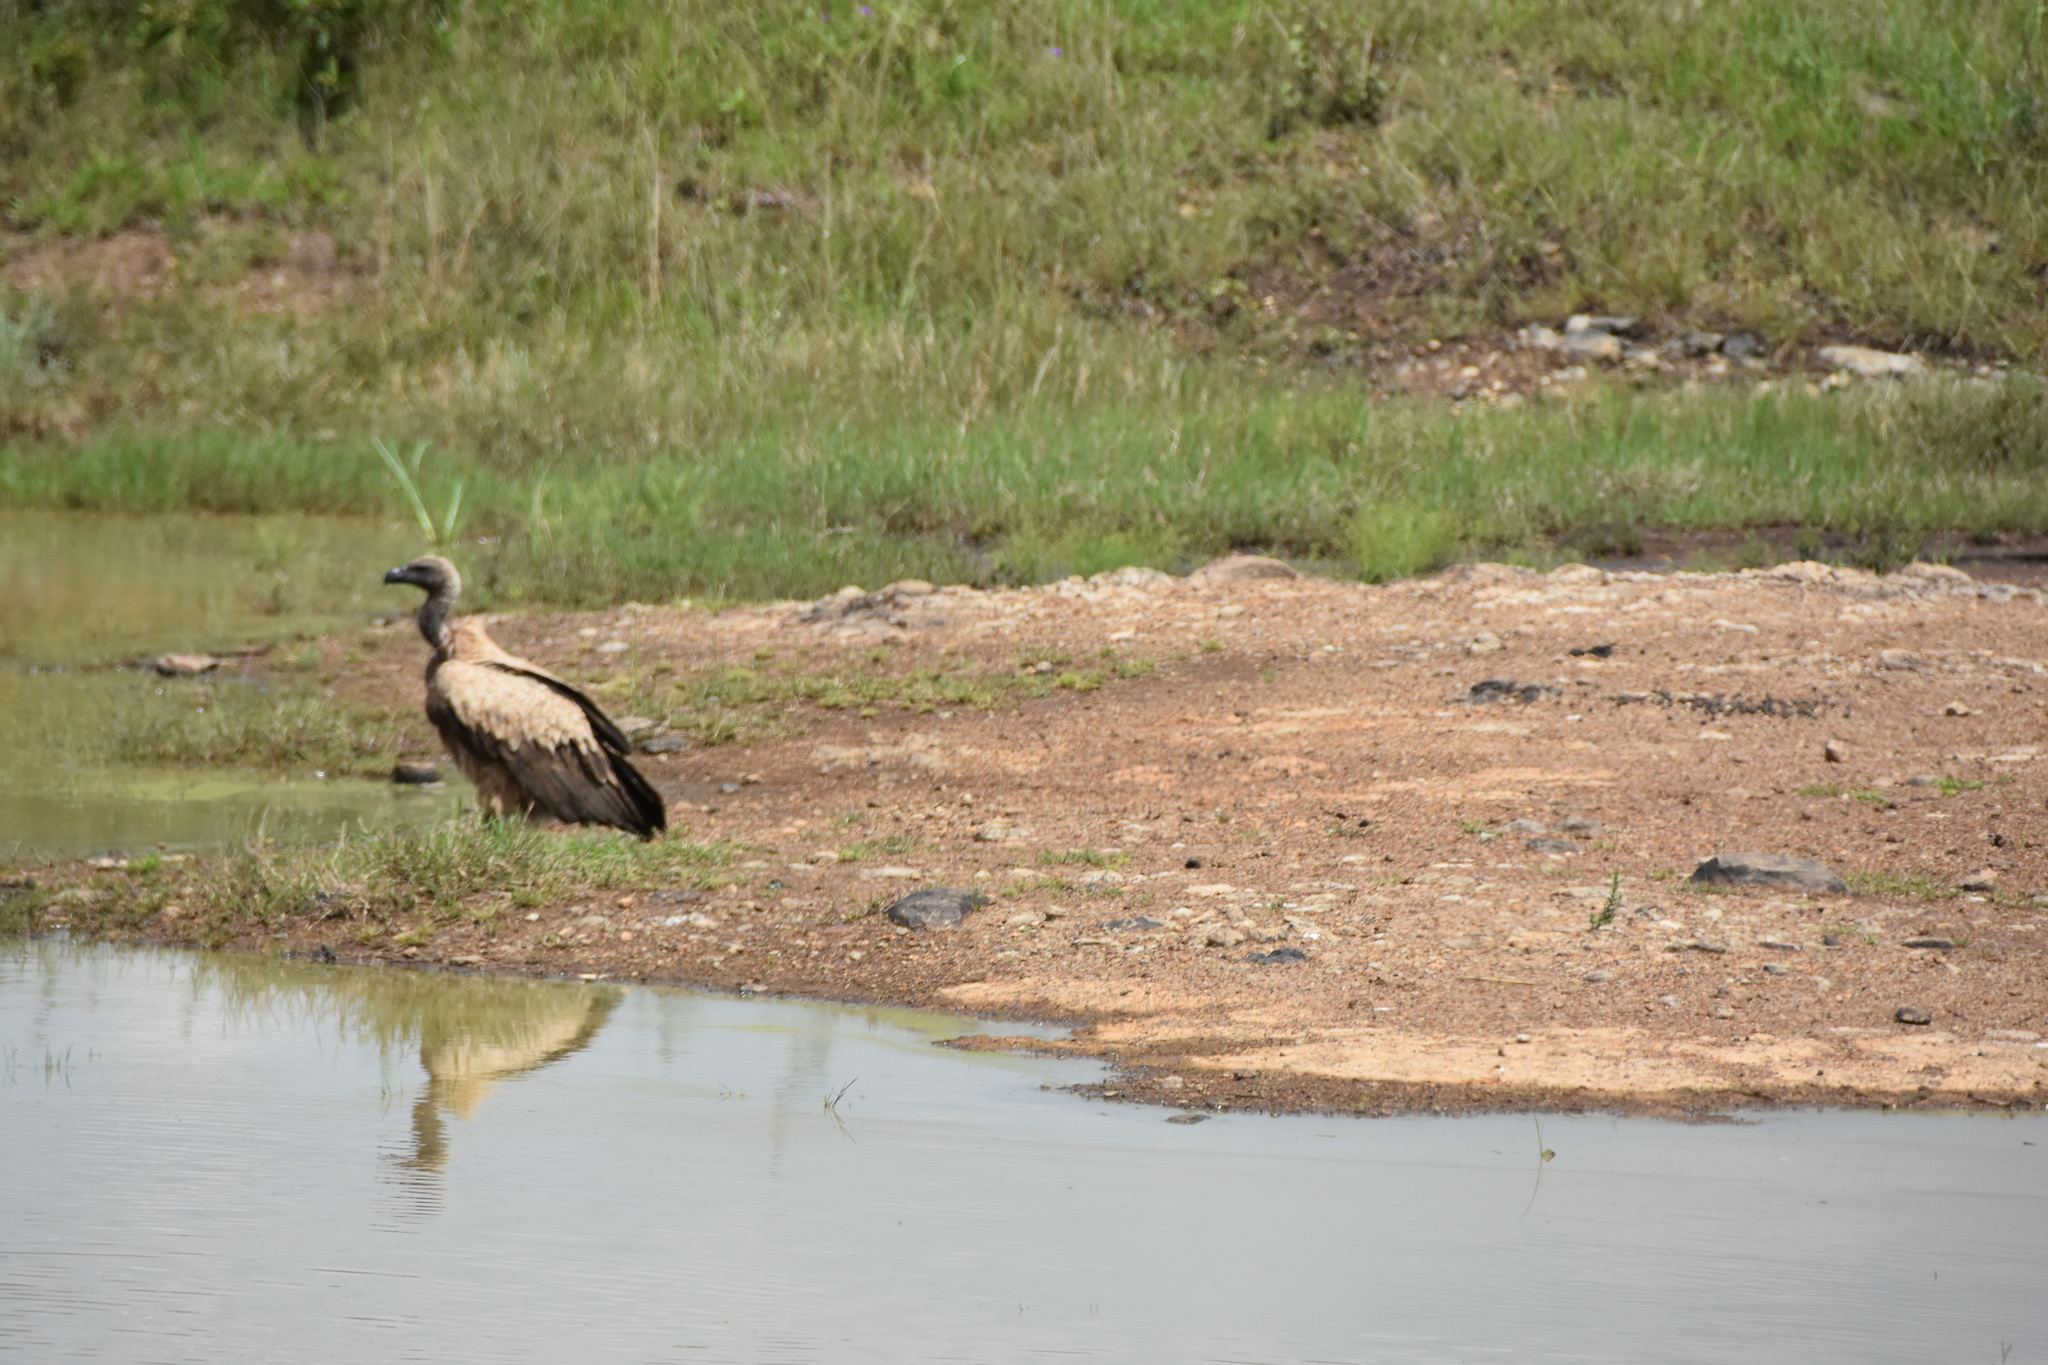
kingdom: Animalia
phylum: Chordata
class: Aves
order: Accipitriformes
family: Accipitridae
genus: Gyps
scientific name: Gyps africanus
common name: White-backed vulture
